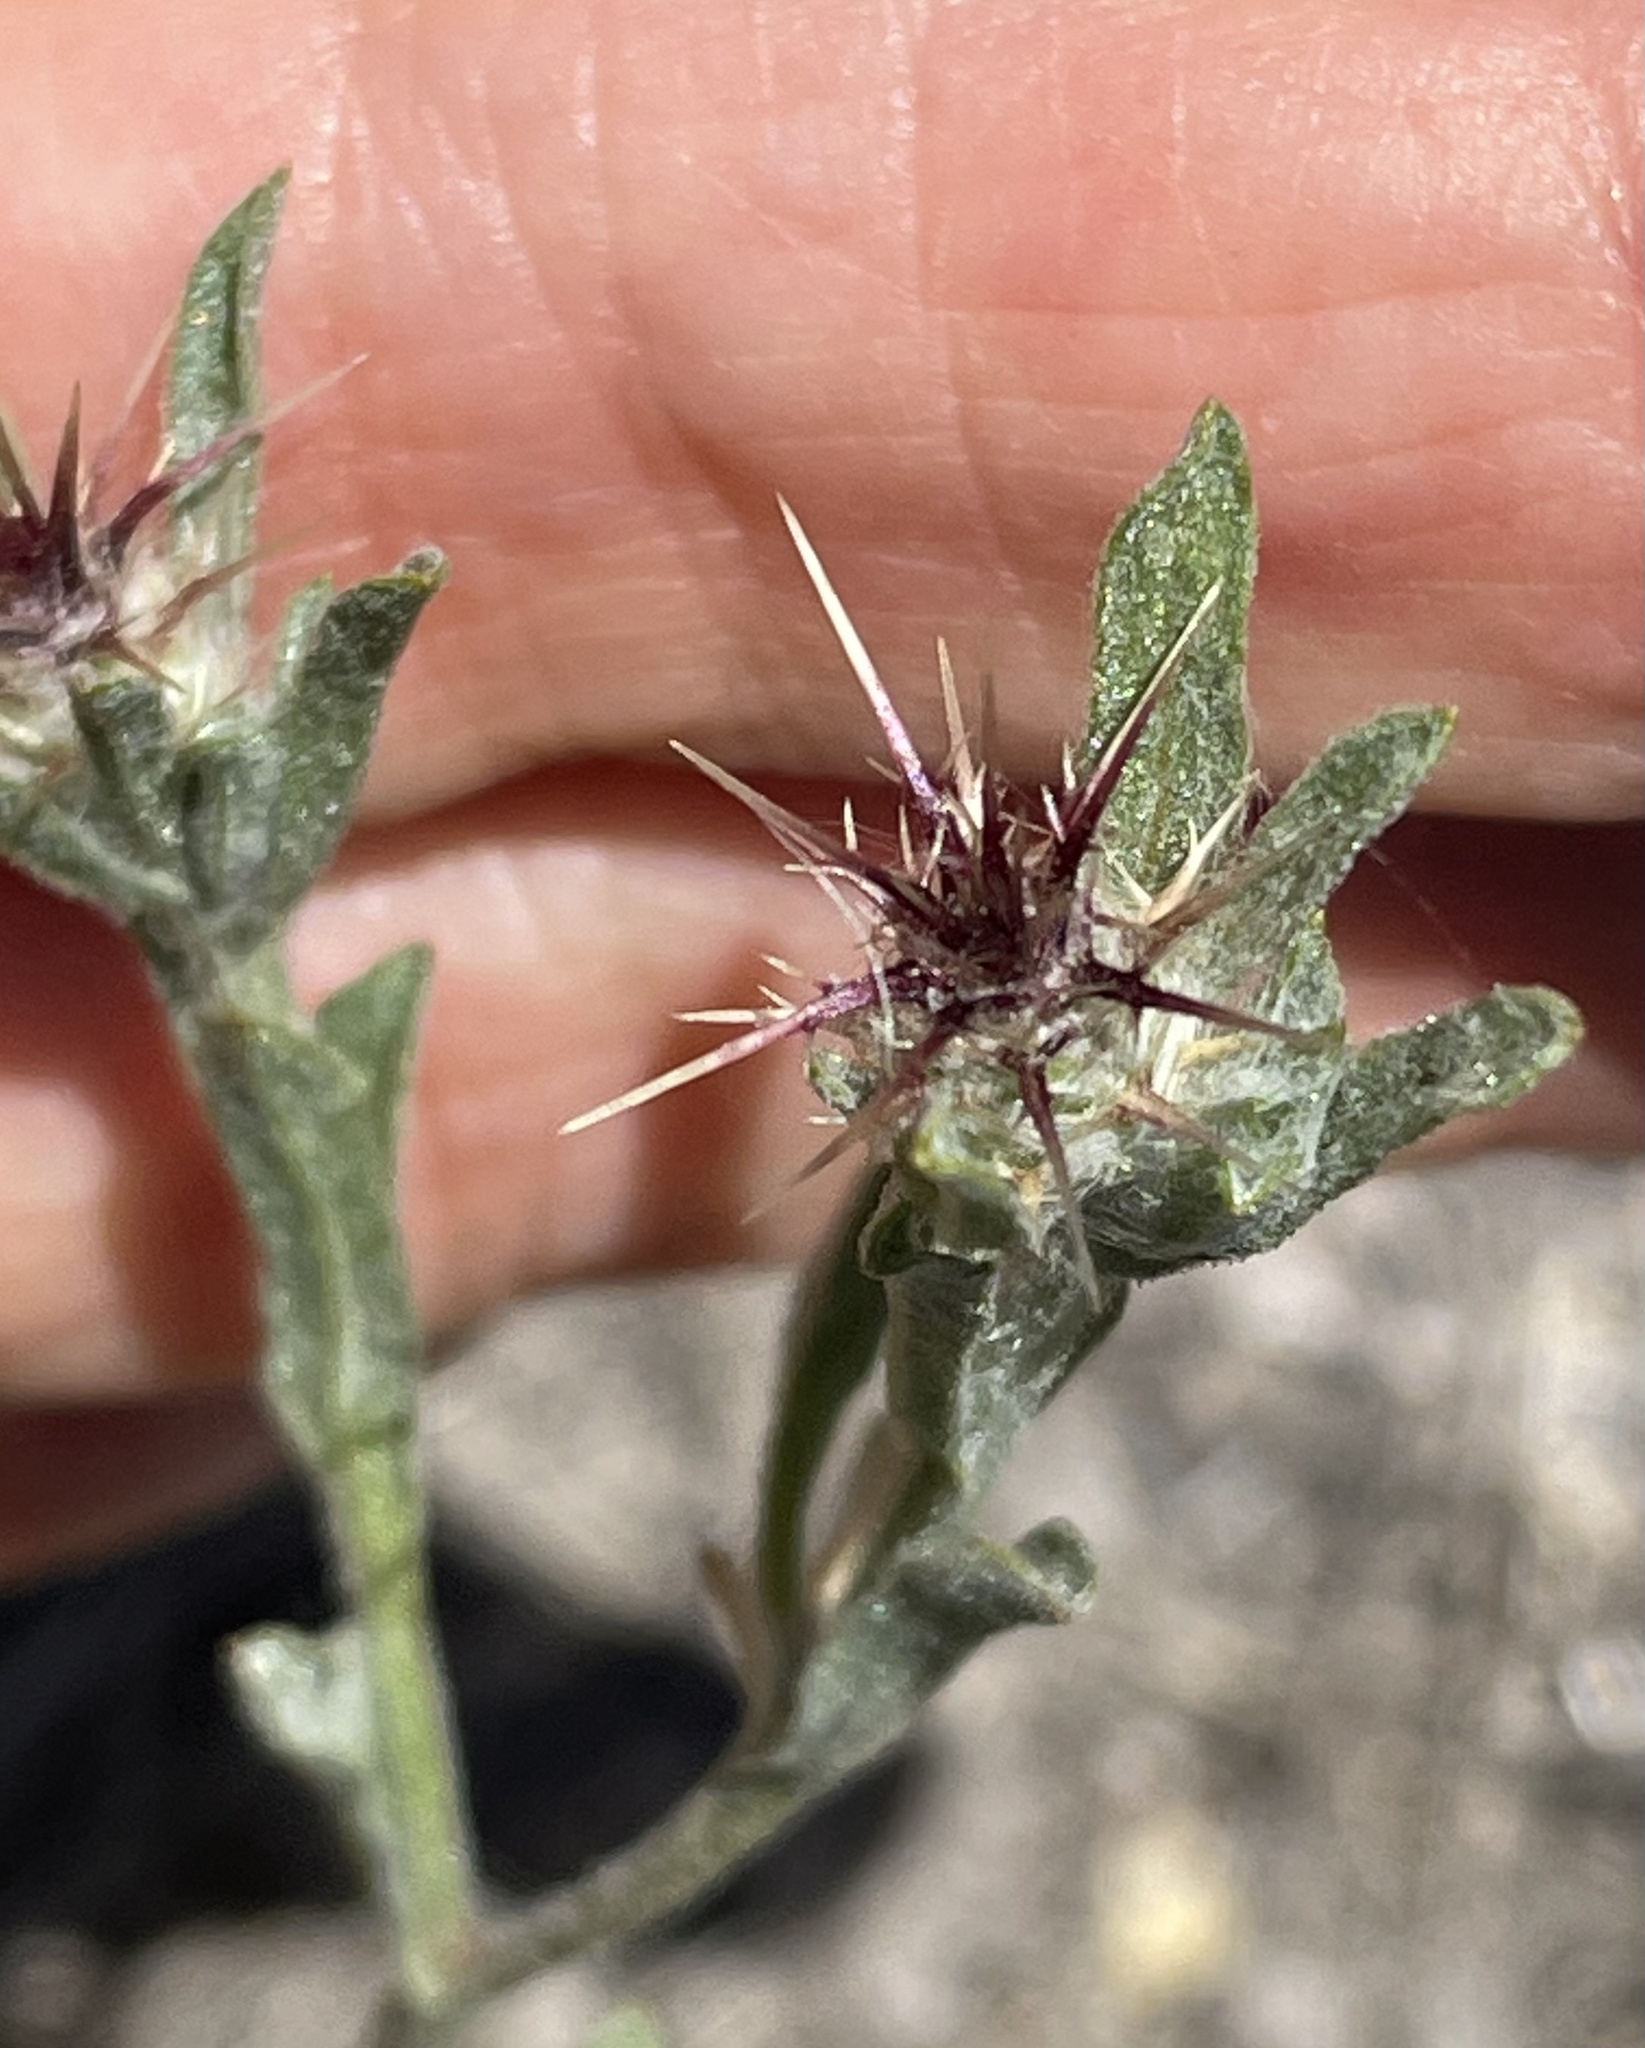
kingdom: Plantae
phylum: Tracheophyta
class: Magnoliopsida
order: Asterales
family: Asteraceae
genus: Centaurea
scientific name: Centaurea melitensis
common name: Maltese star-thistle
